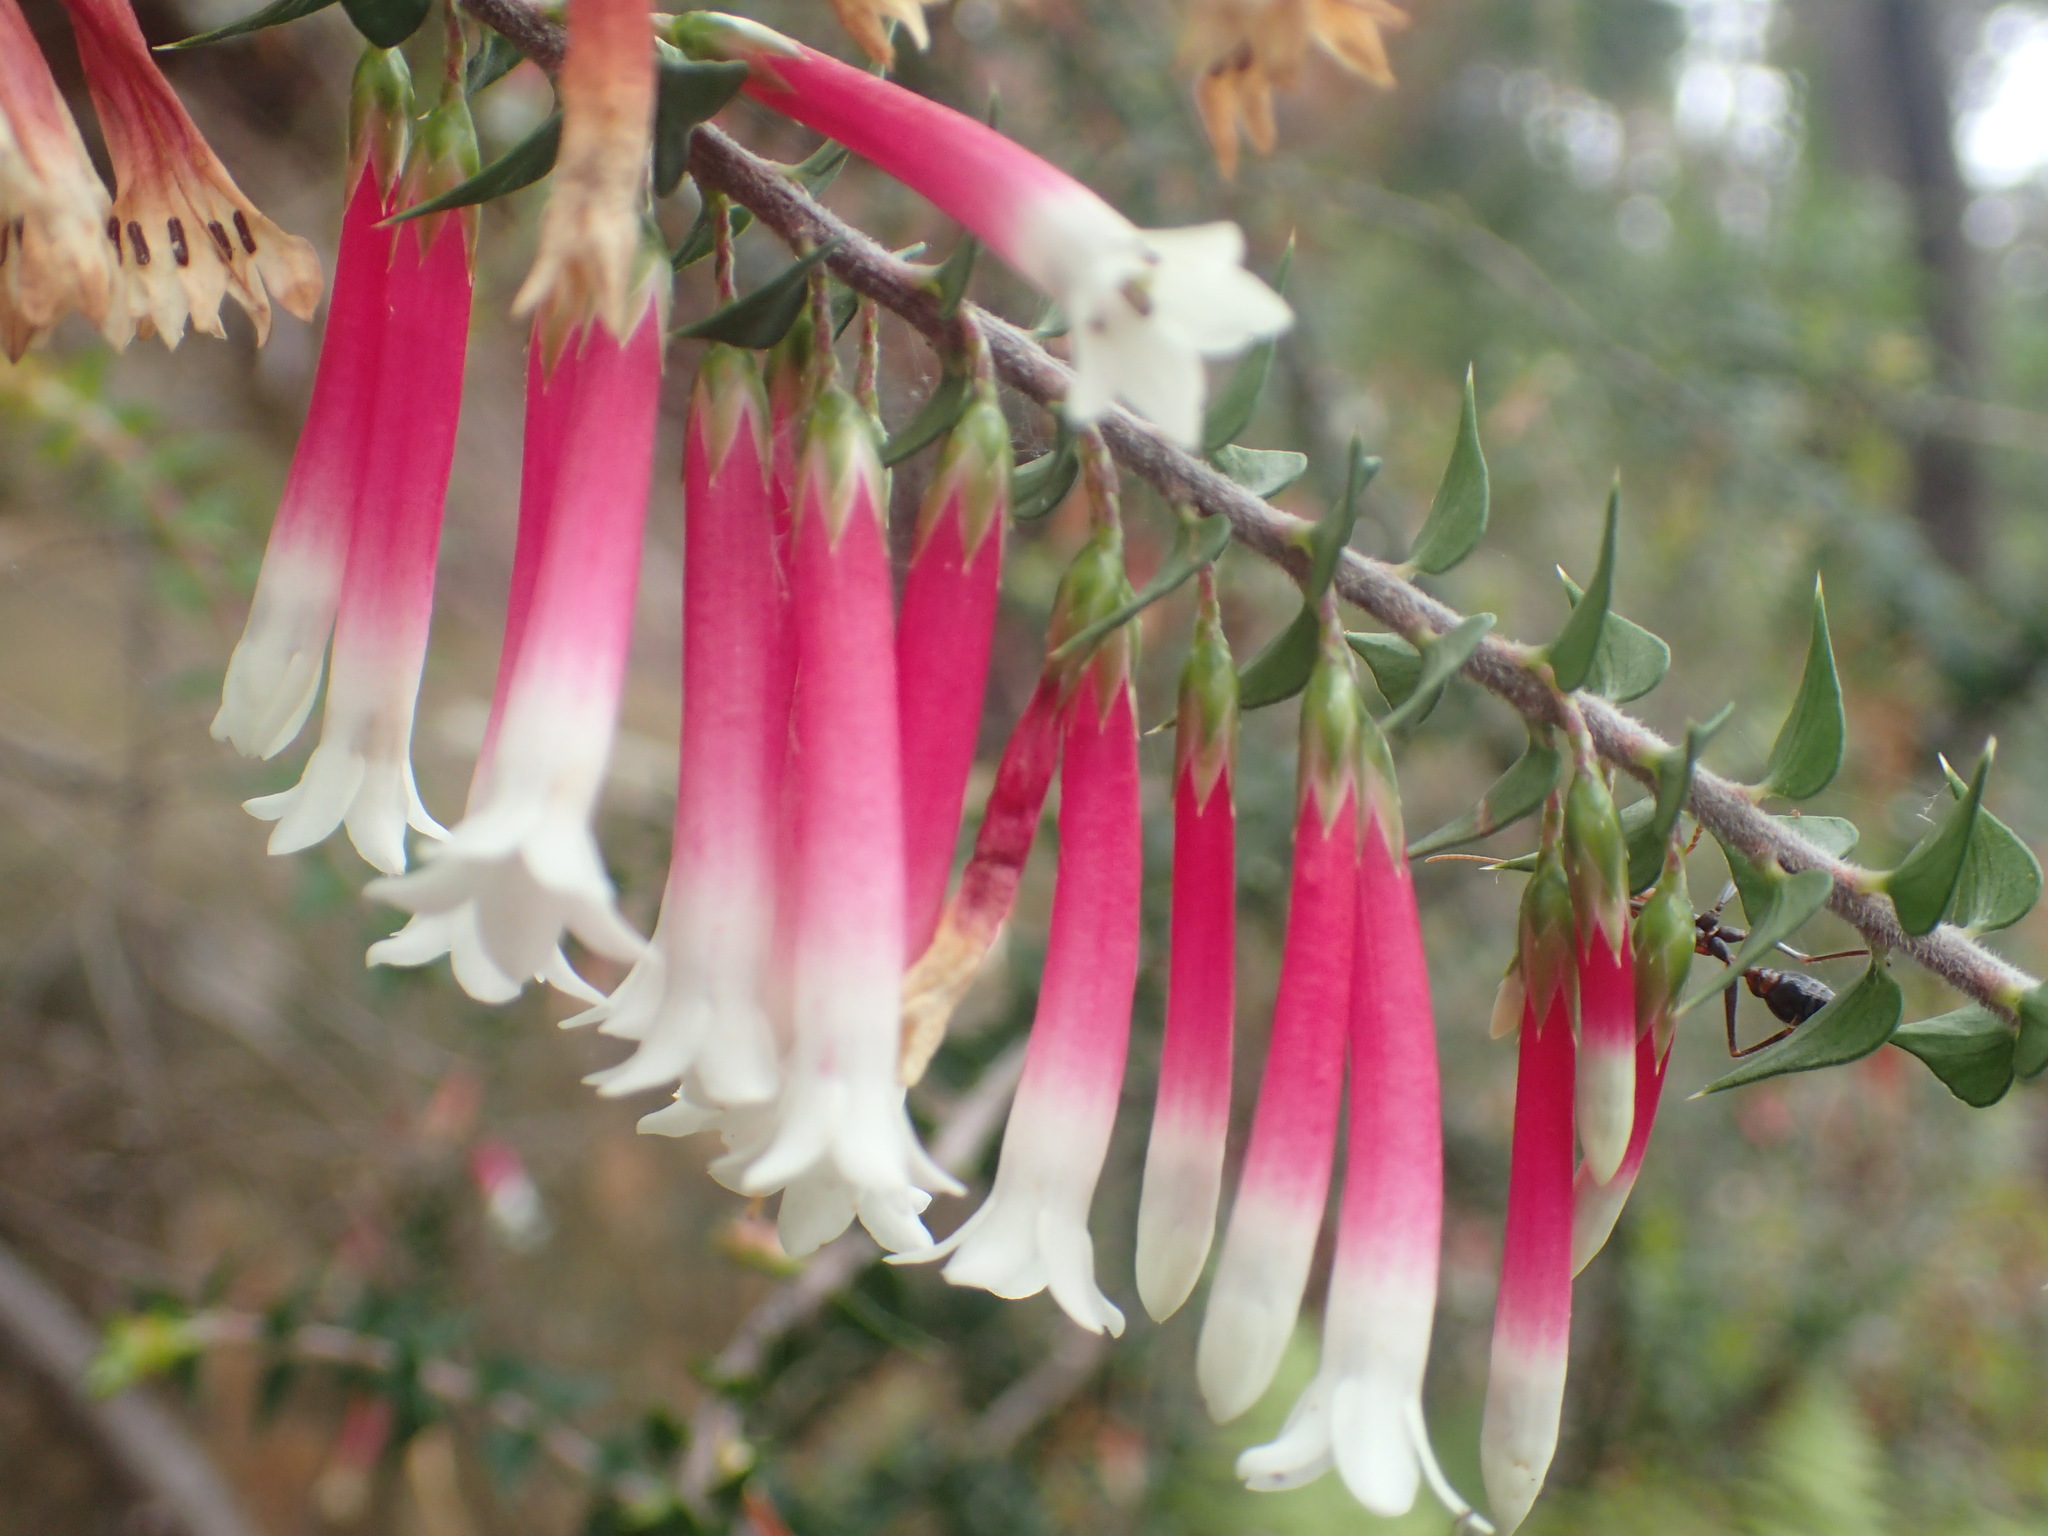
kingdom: Plantae
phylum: Tracheophyta
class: Magnoliopsida
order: Ericales
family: Ericaceae
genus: Epacris
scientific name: Epacris longiflora
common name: Fuchsia-heath
